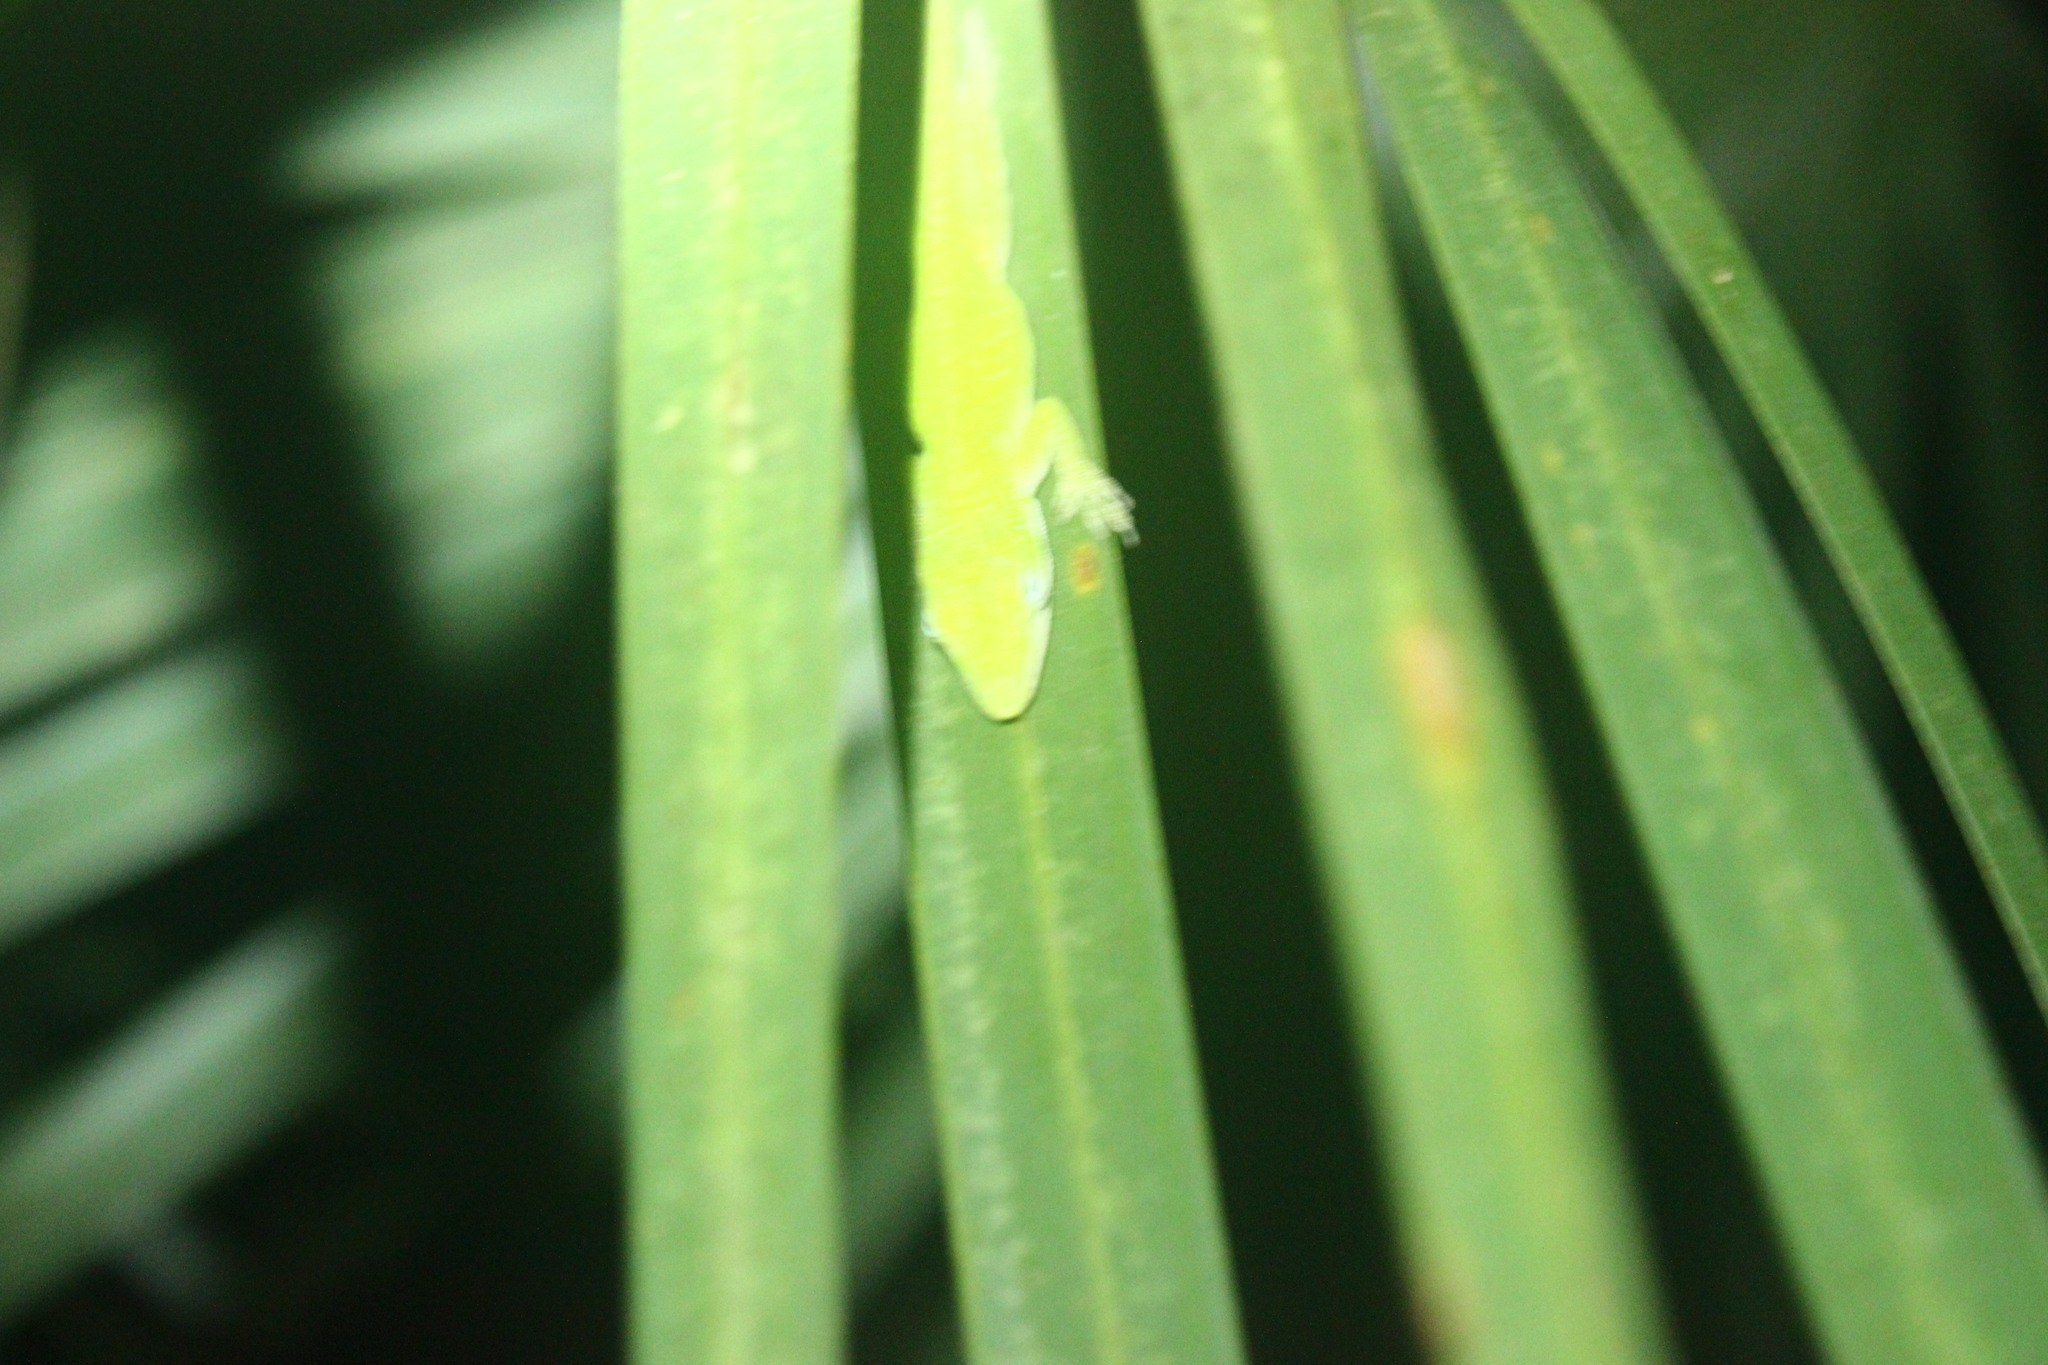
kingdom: Animalia
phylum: Chordata
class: Squamata
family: Dactyloidae
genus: Anolis
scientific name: Anolis carolinensis
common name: Green anole
